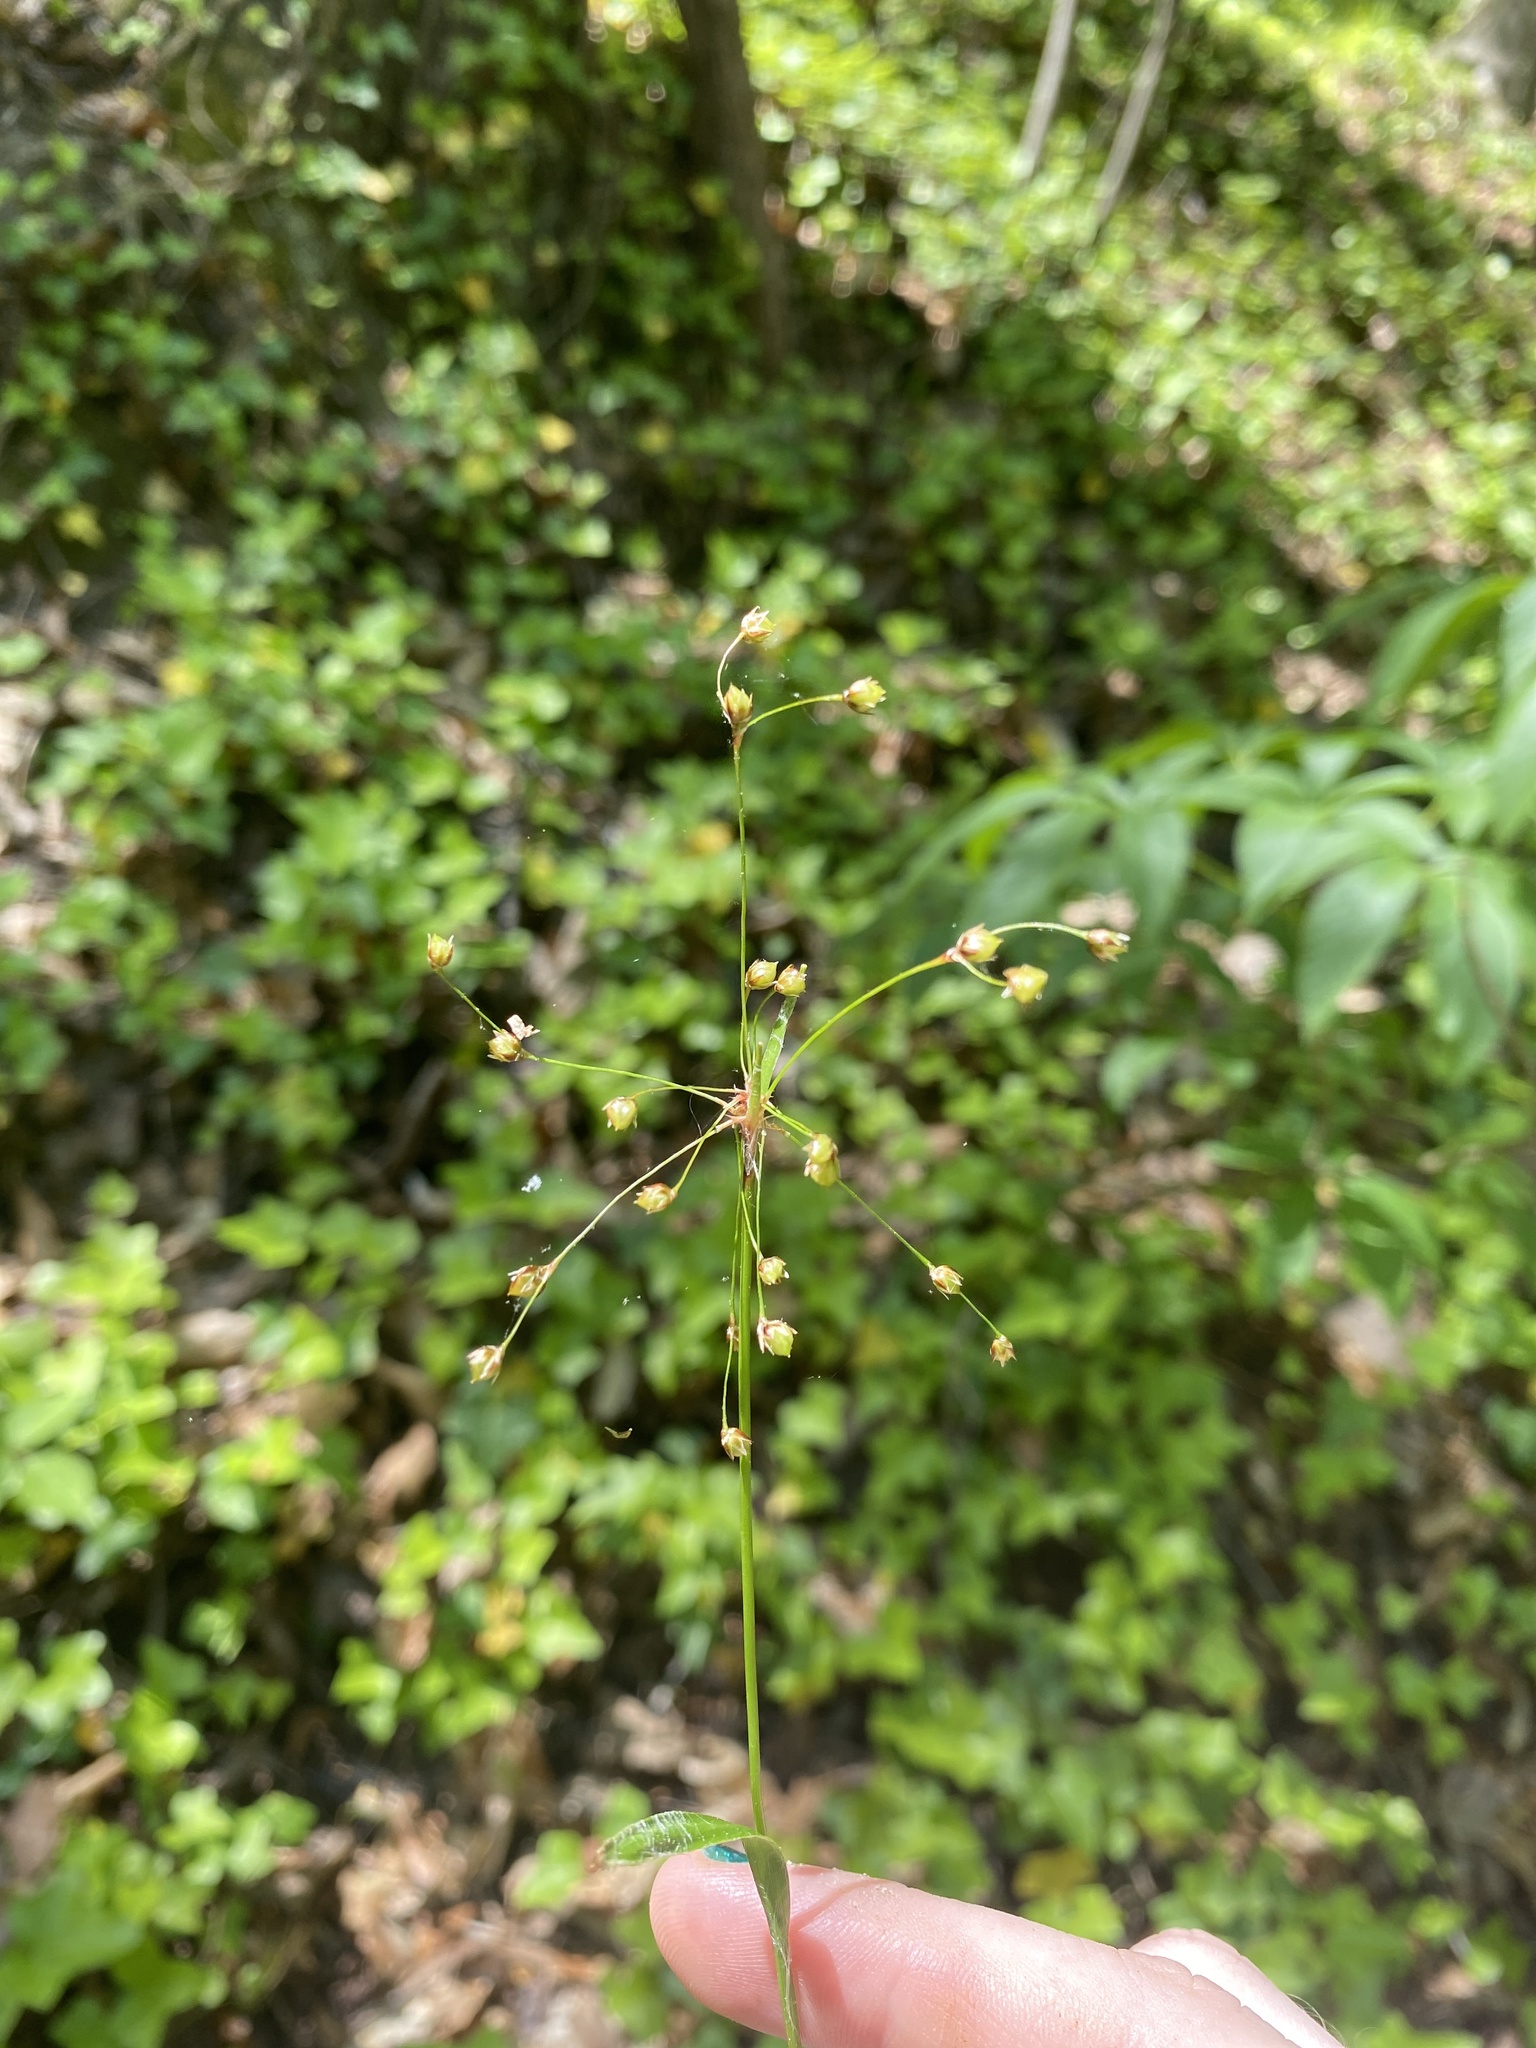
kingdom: Plantae
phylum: Tracheophyta
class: Liliopsida
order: Poales
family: Juncaceae
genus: Luzula
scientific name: Luzula acuminata
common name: Hairy woodrush
